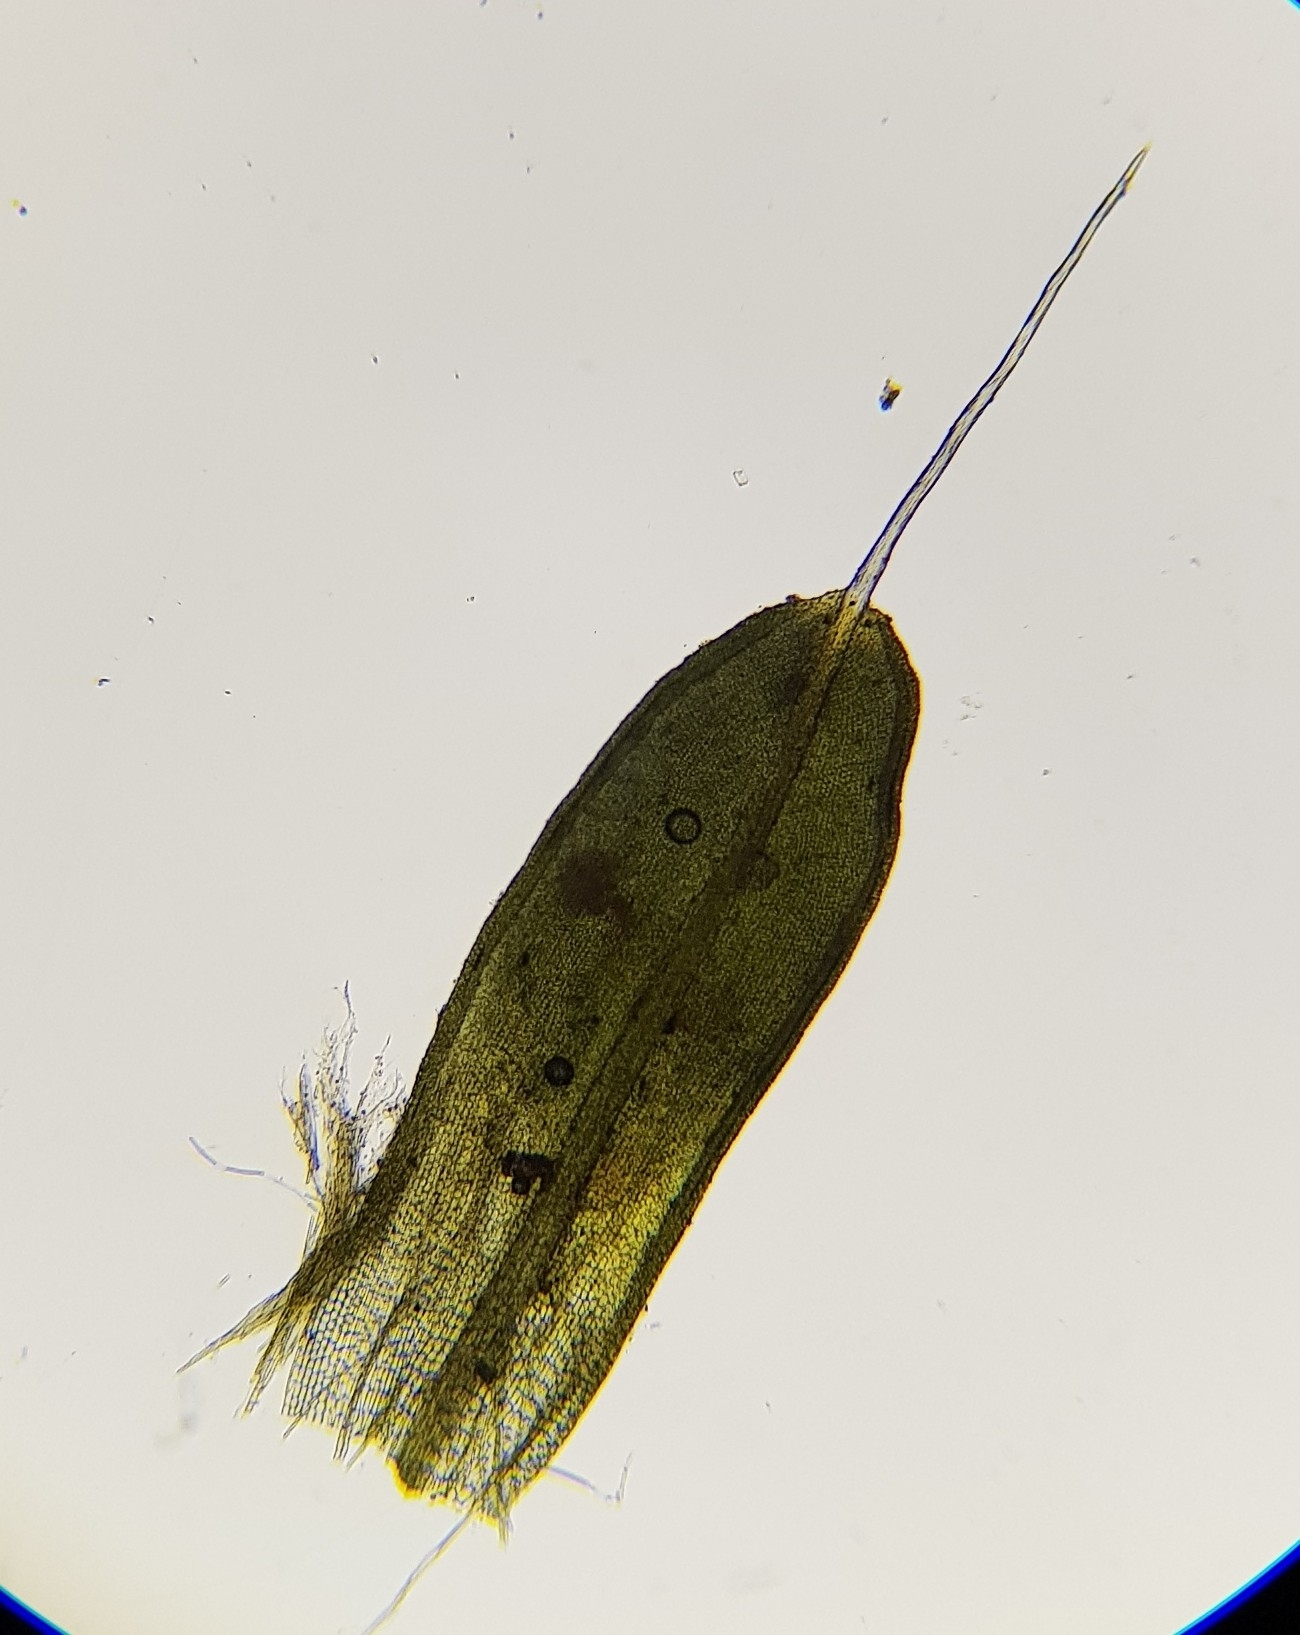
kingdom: Plantae
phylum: Bryophyta
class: Bryopsida
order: Pottiales
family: Pottiaceae
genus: Tortula
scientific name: Tortula muralis
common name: Wall screw-moss
